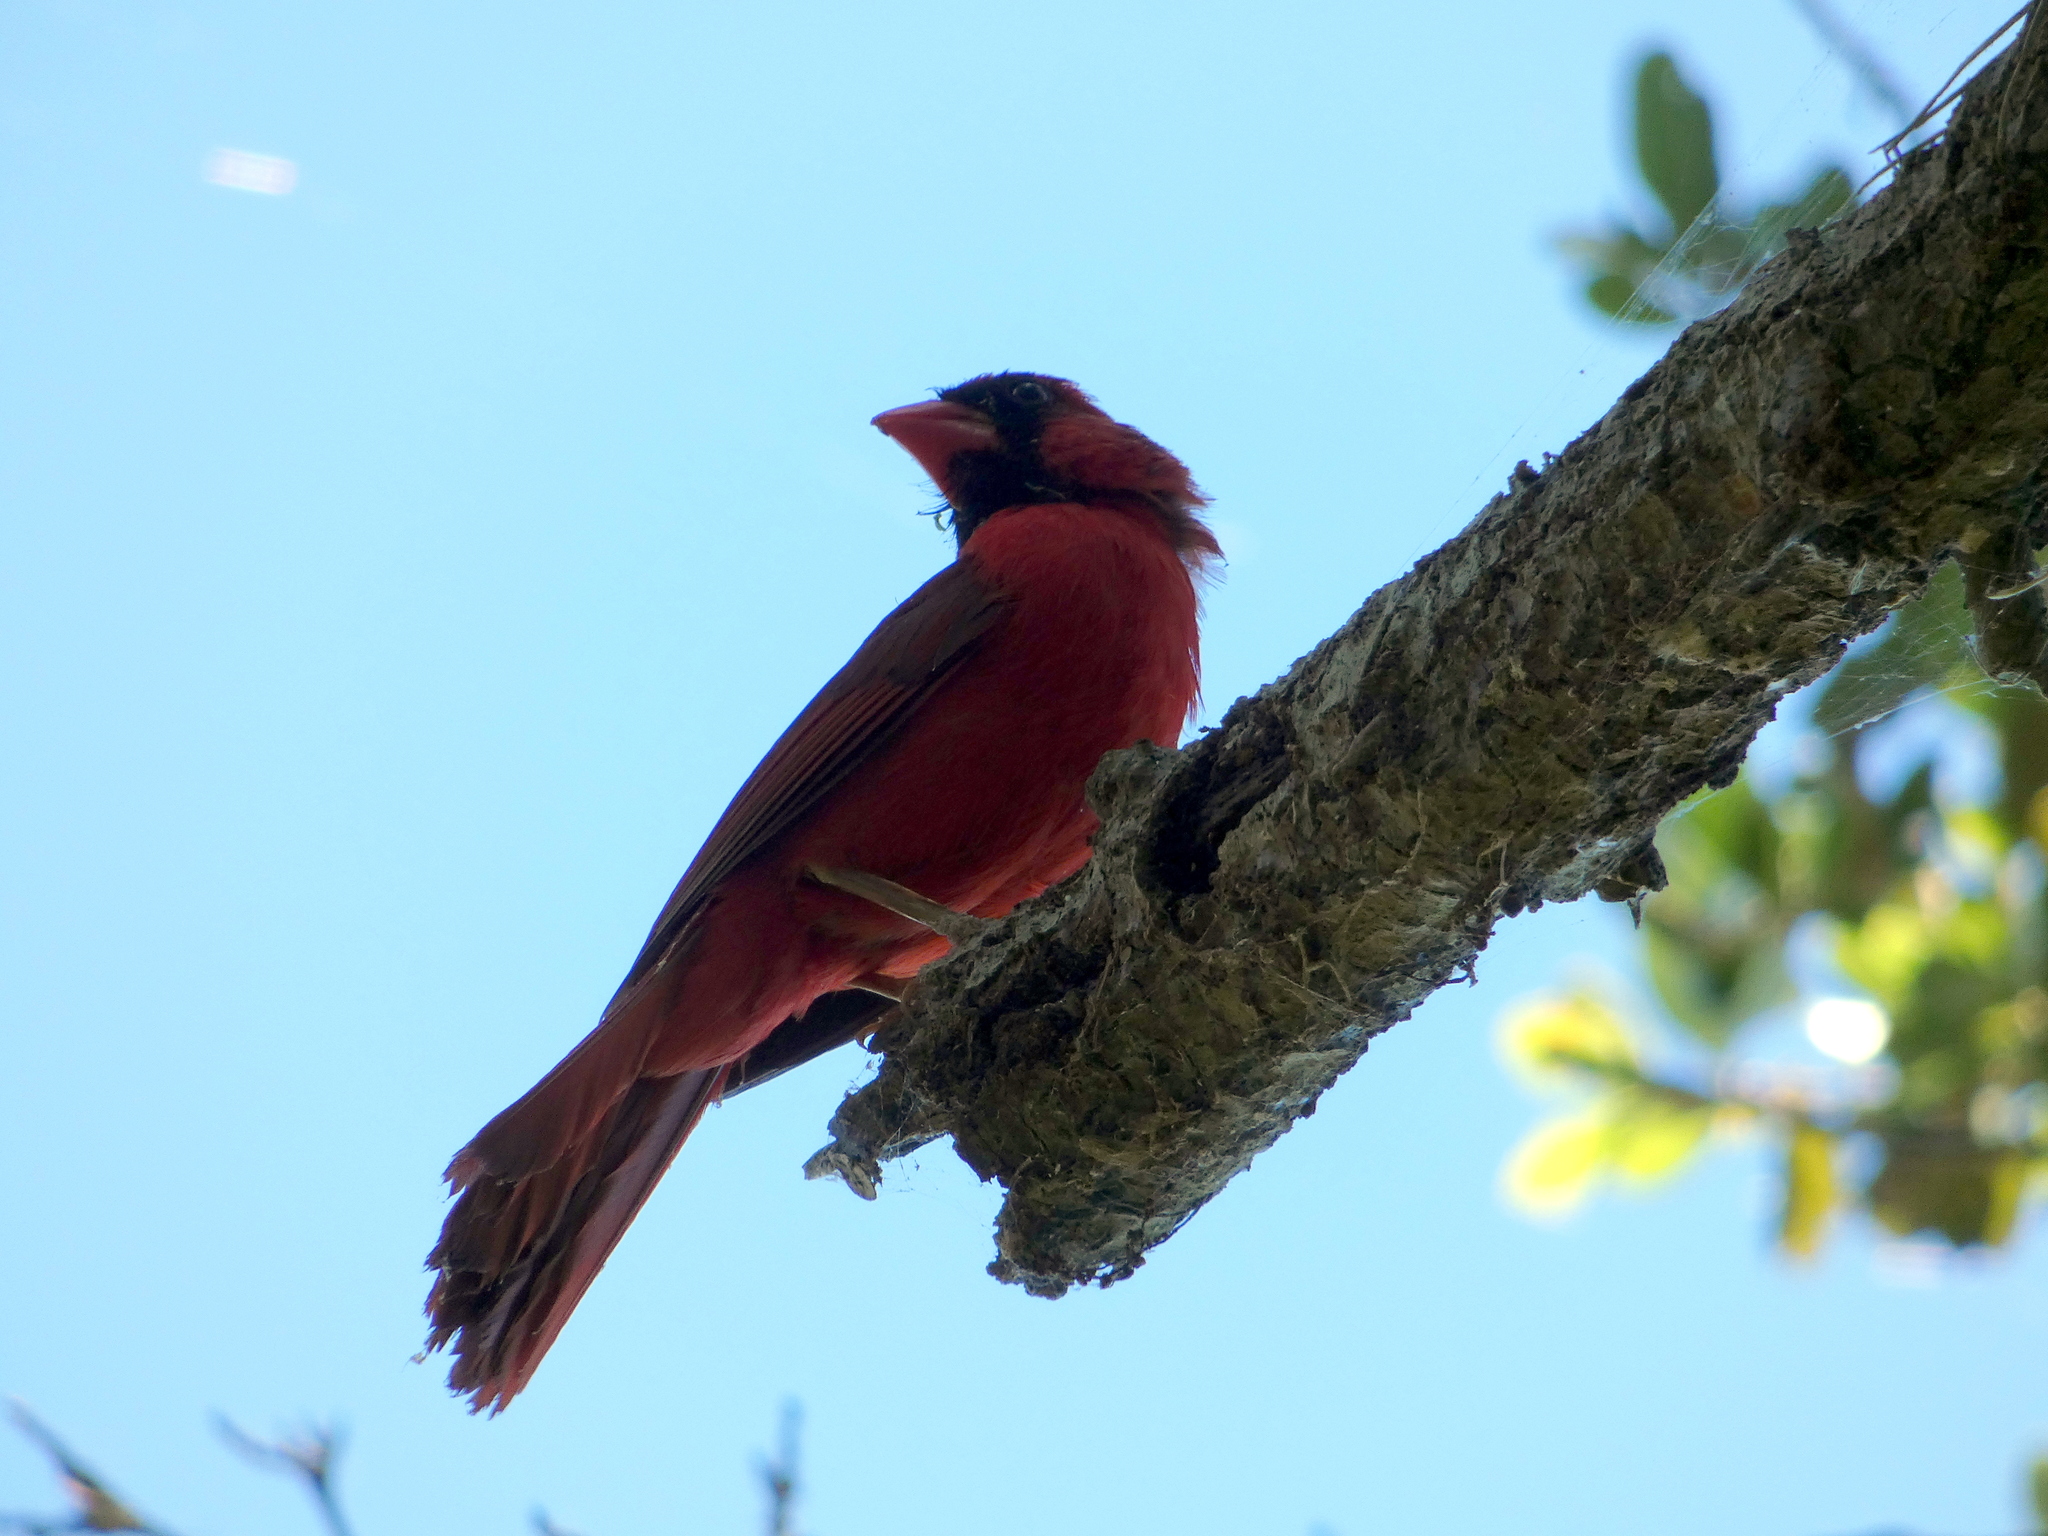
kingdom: Animalia
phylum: Chordata
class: Aves
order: Passeriformes
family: Cardinalidae
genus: Cardinalis
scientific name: Cardinalis cardinalis
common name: Northern cardinal
